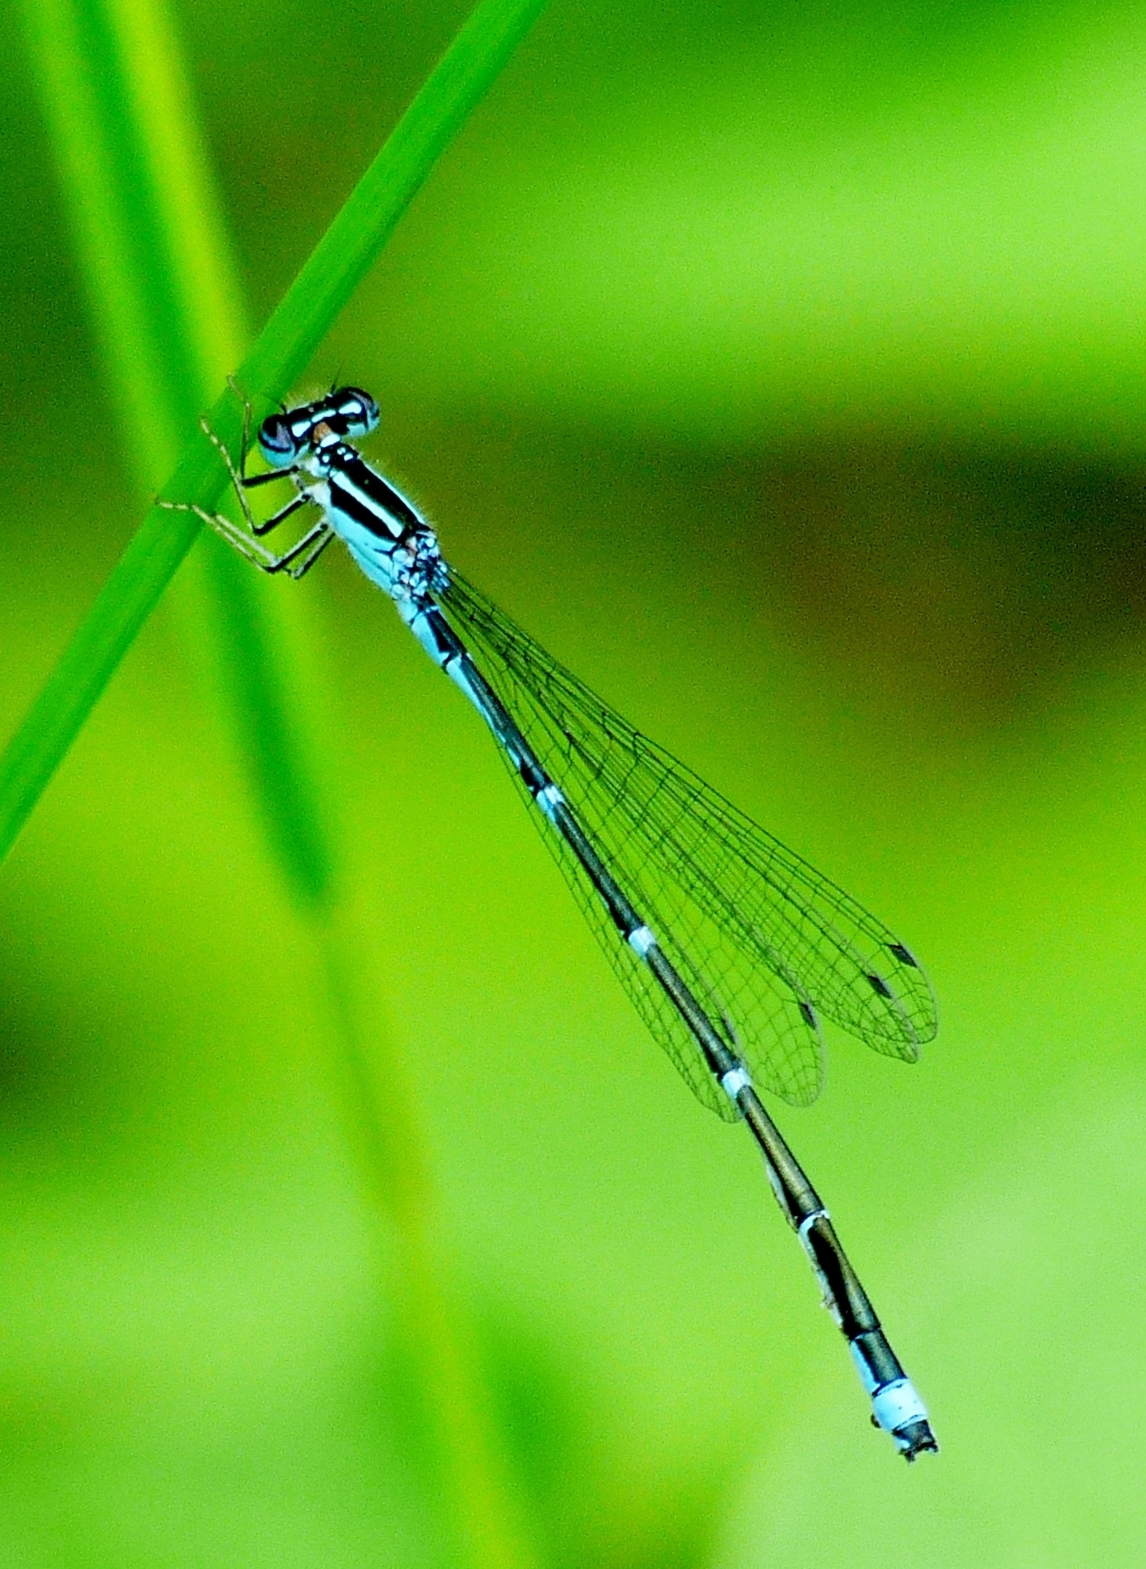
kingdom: Animalia
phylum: Arthropoda
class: Insecta
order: Odonata
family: Coenagrionidae
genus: Enallagma
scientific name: Enallagma exsulans
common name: Stream bluet
